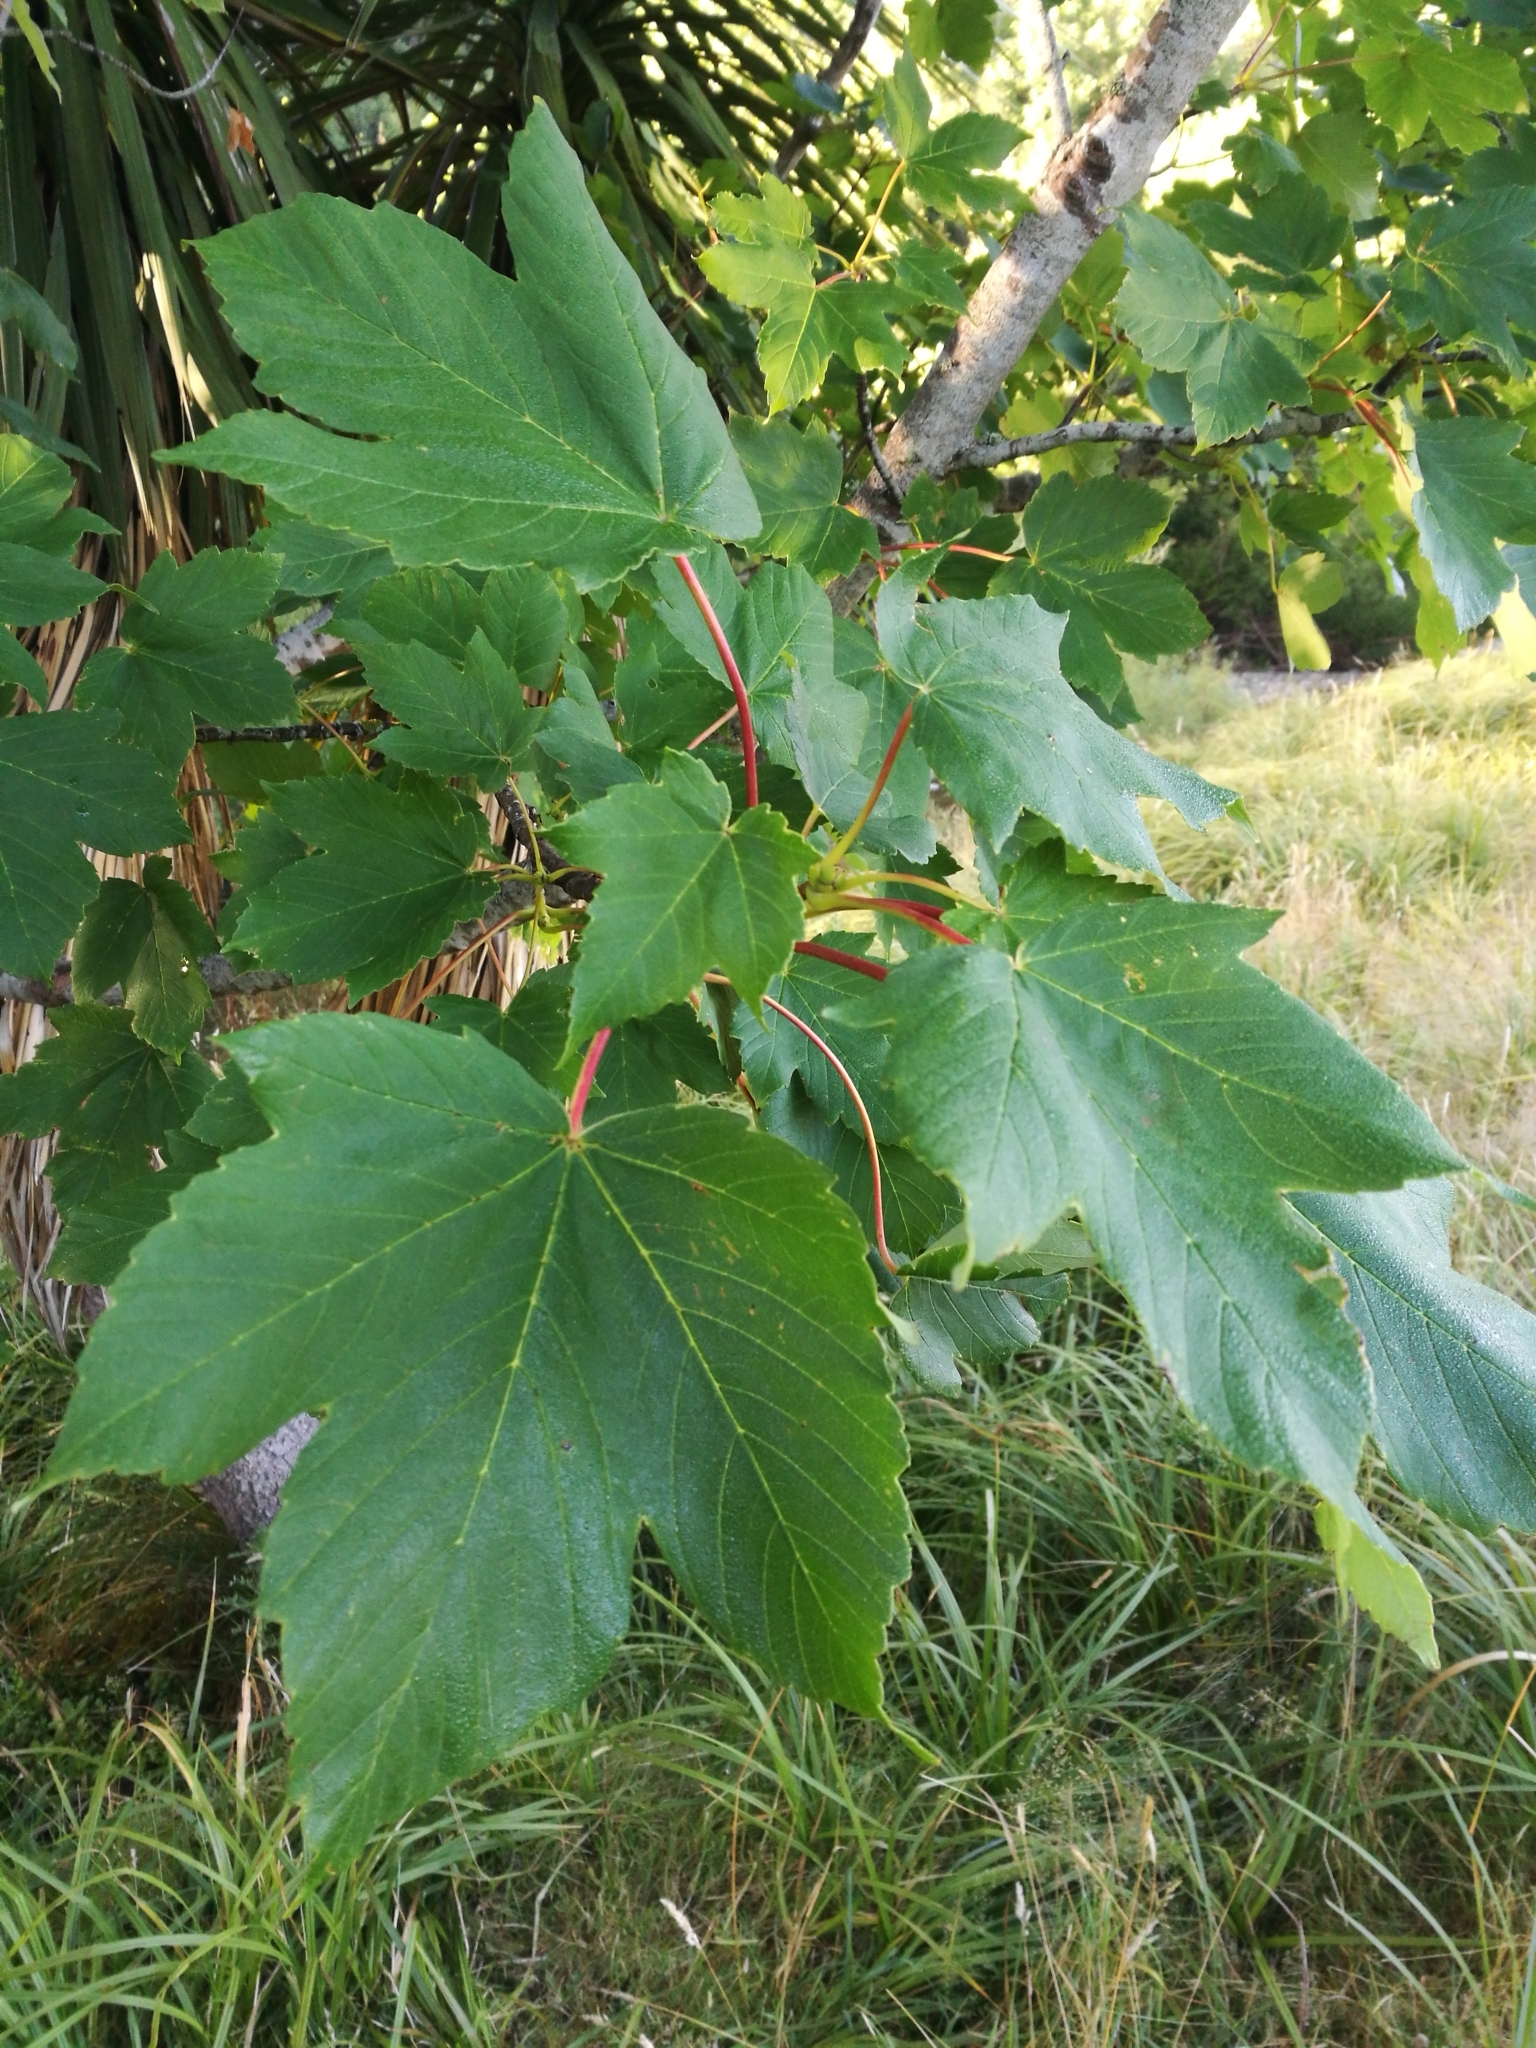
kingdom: Plantae
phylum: Tracheophyta
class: Magnoliopsida
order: Sapindales
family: Sapindaceae
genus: Acer
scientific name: Acer pseudoplatanus
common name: Sycamore
